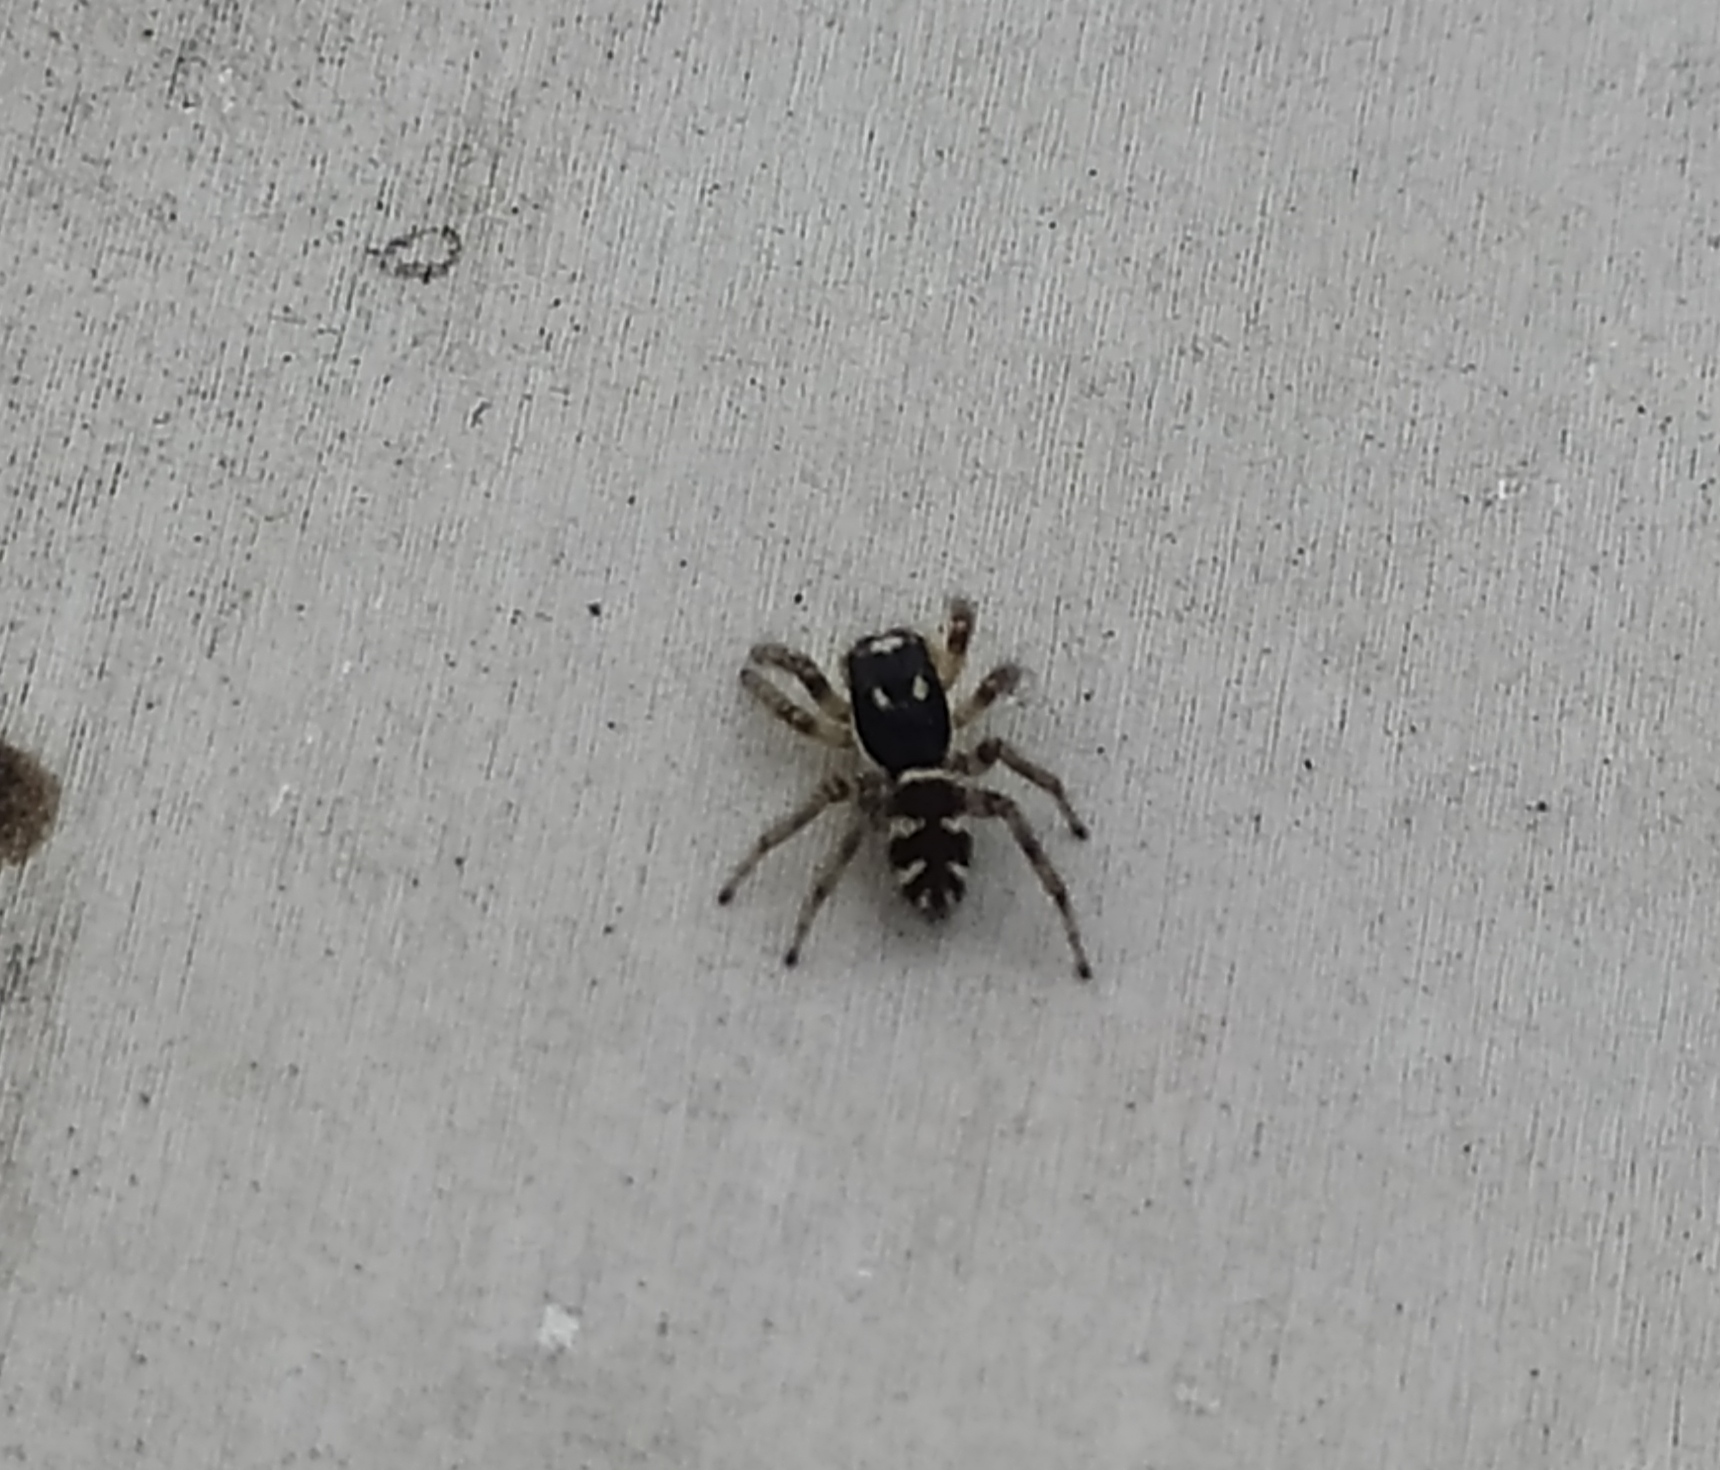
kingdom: Animalia
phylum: Arthropoda
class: Arachnida
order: Araneae
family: Salticidae
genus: Salticus
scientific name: Salticus scenicus
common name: Zebra jumper
